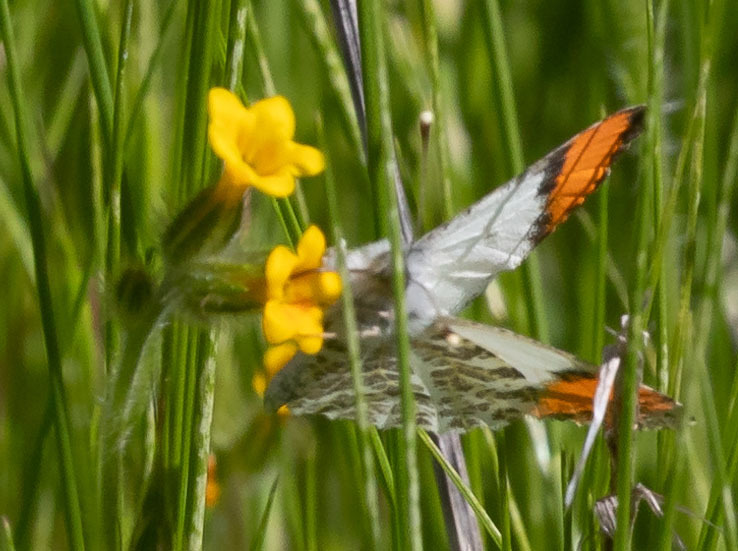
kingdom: Animalia
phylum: Arthropoda
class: Insecta
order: Lepidoptera
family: Pieridae
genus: Anthocharis
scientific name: Anthocharis sara
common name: Sara's orangetip
